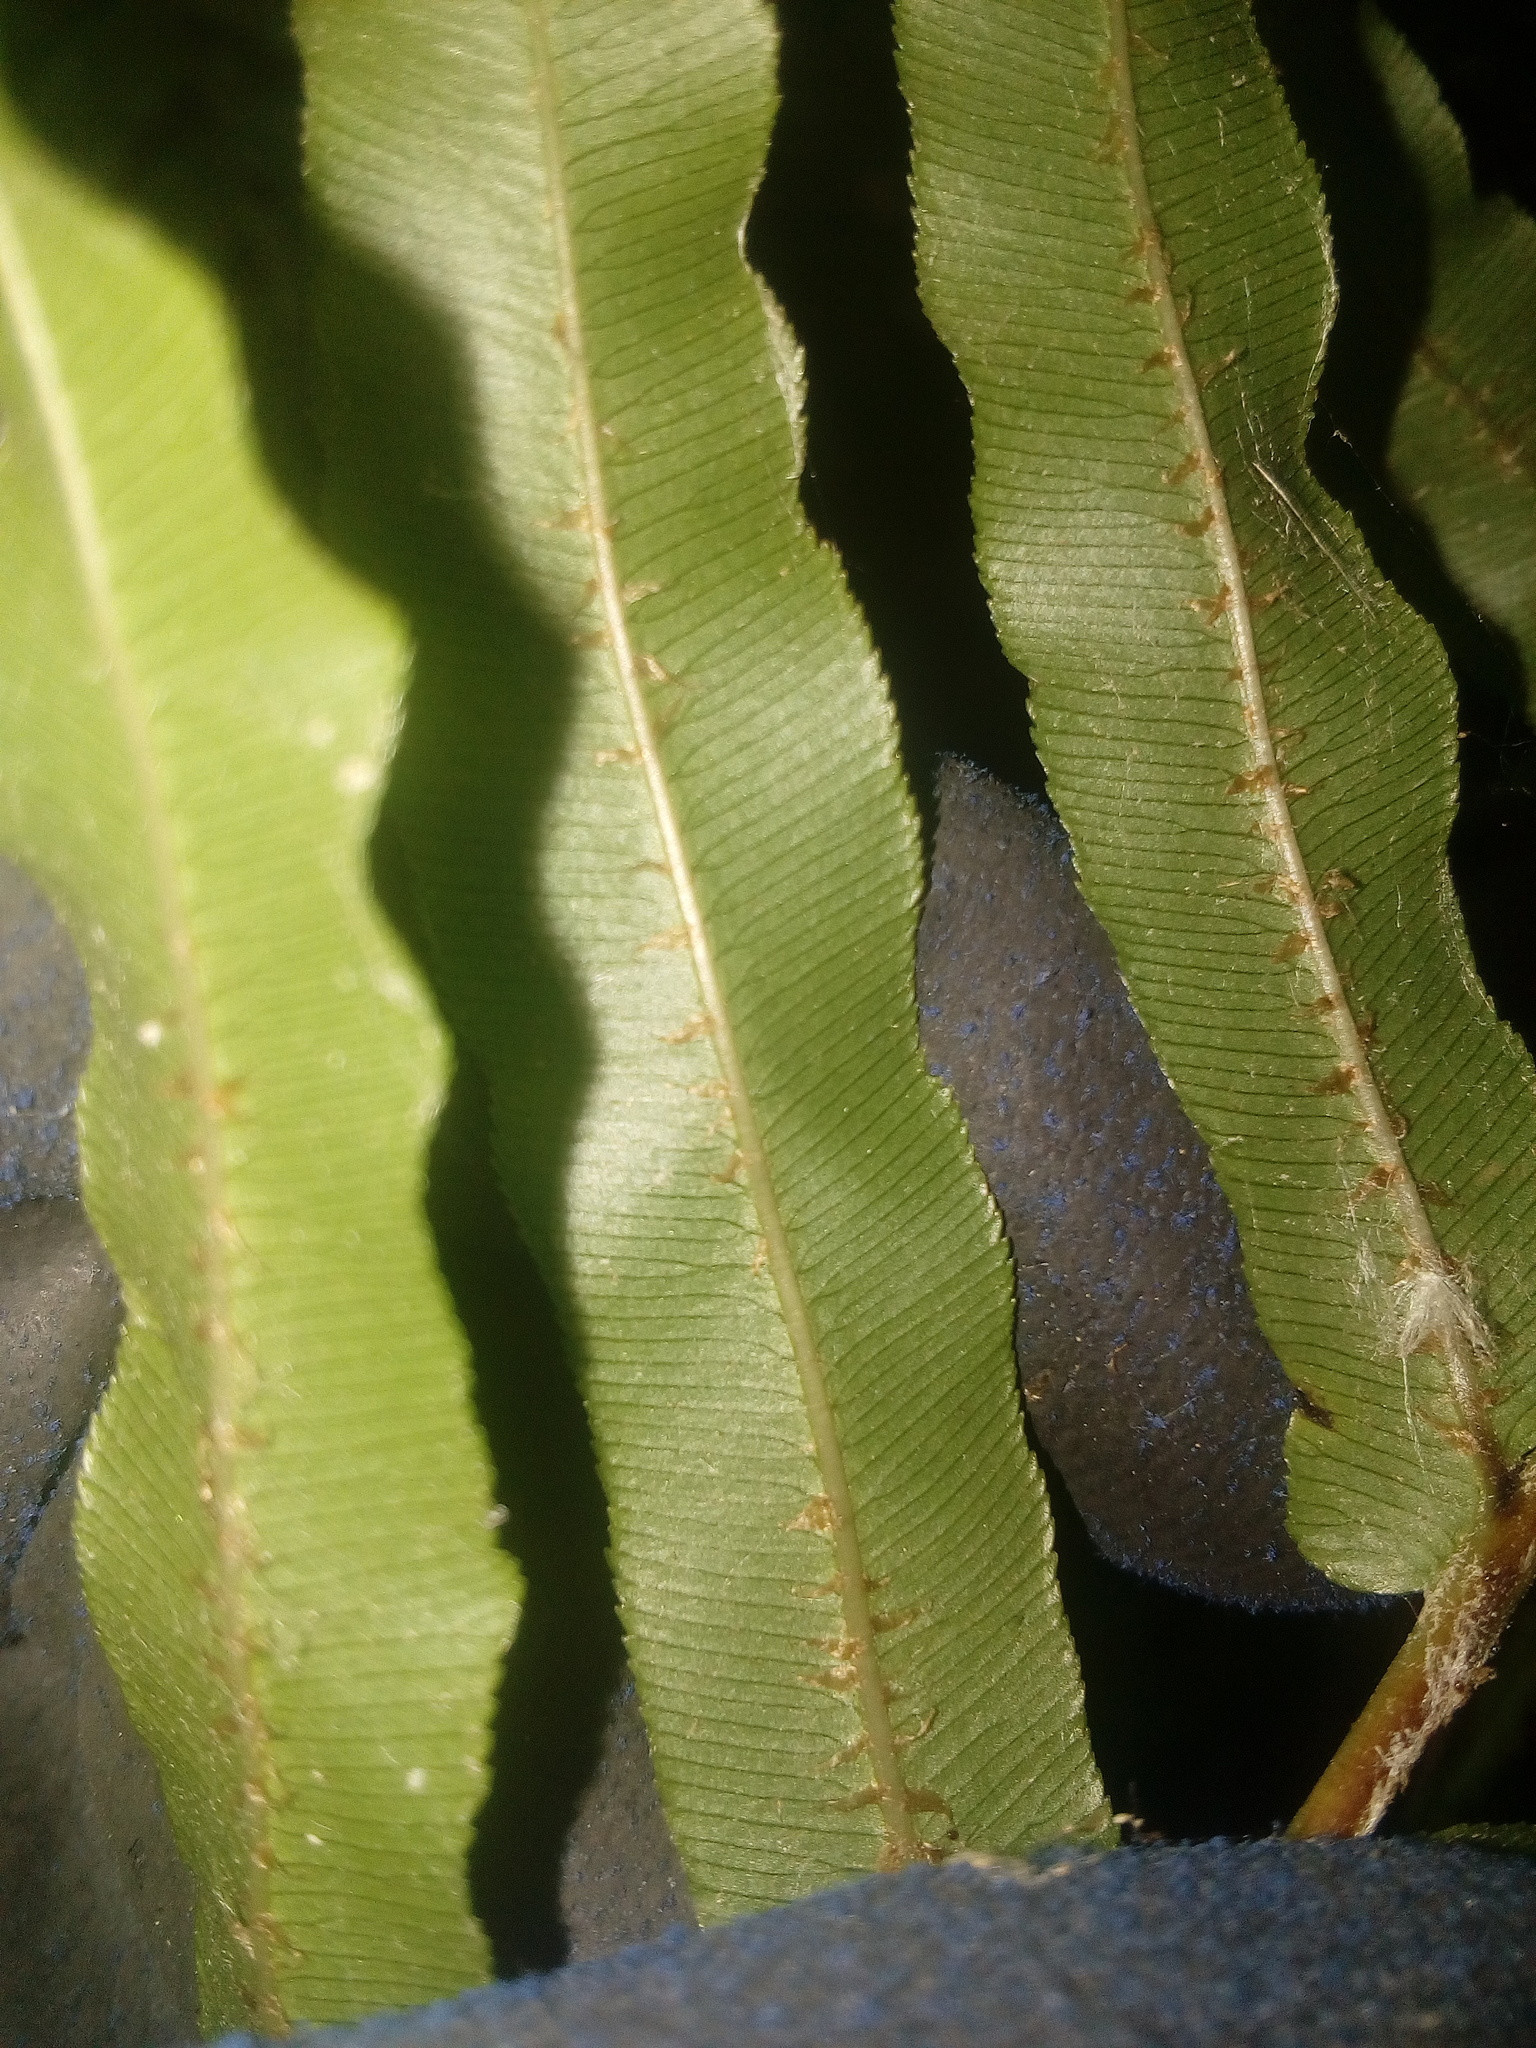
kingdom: Plantae
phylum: Tracheophyta
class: Polypodiopsida
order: Polypodiales
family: Blechnaceae
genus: Parablechnum
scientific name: Parablechnum minus
